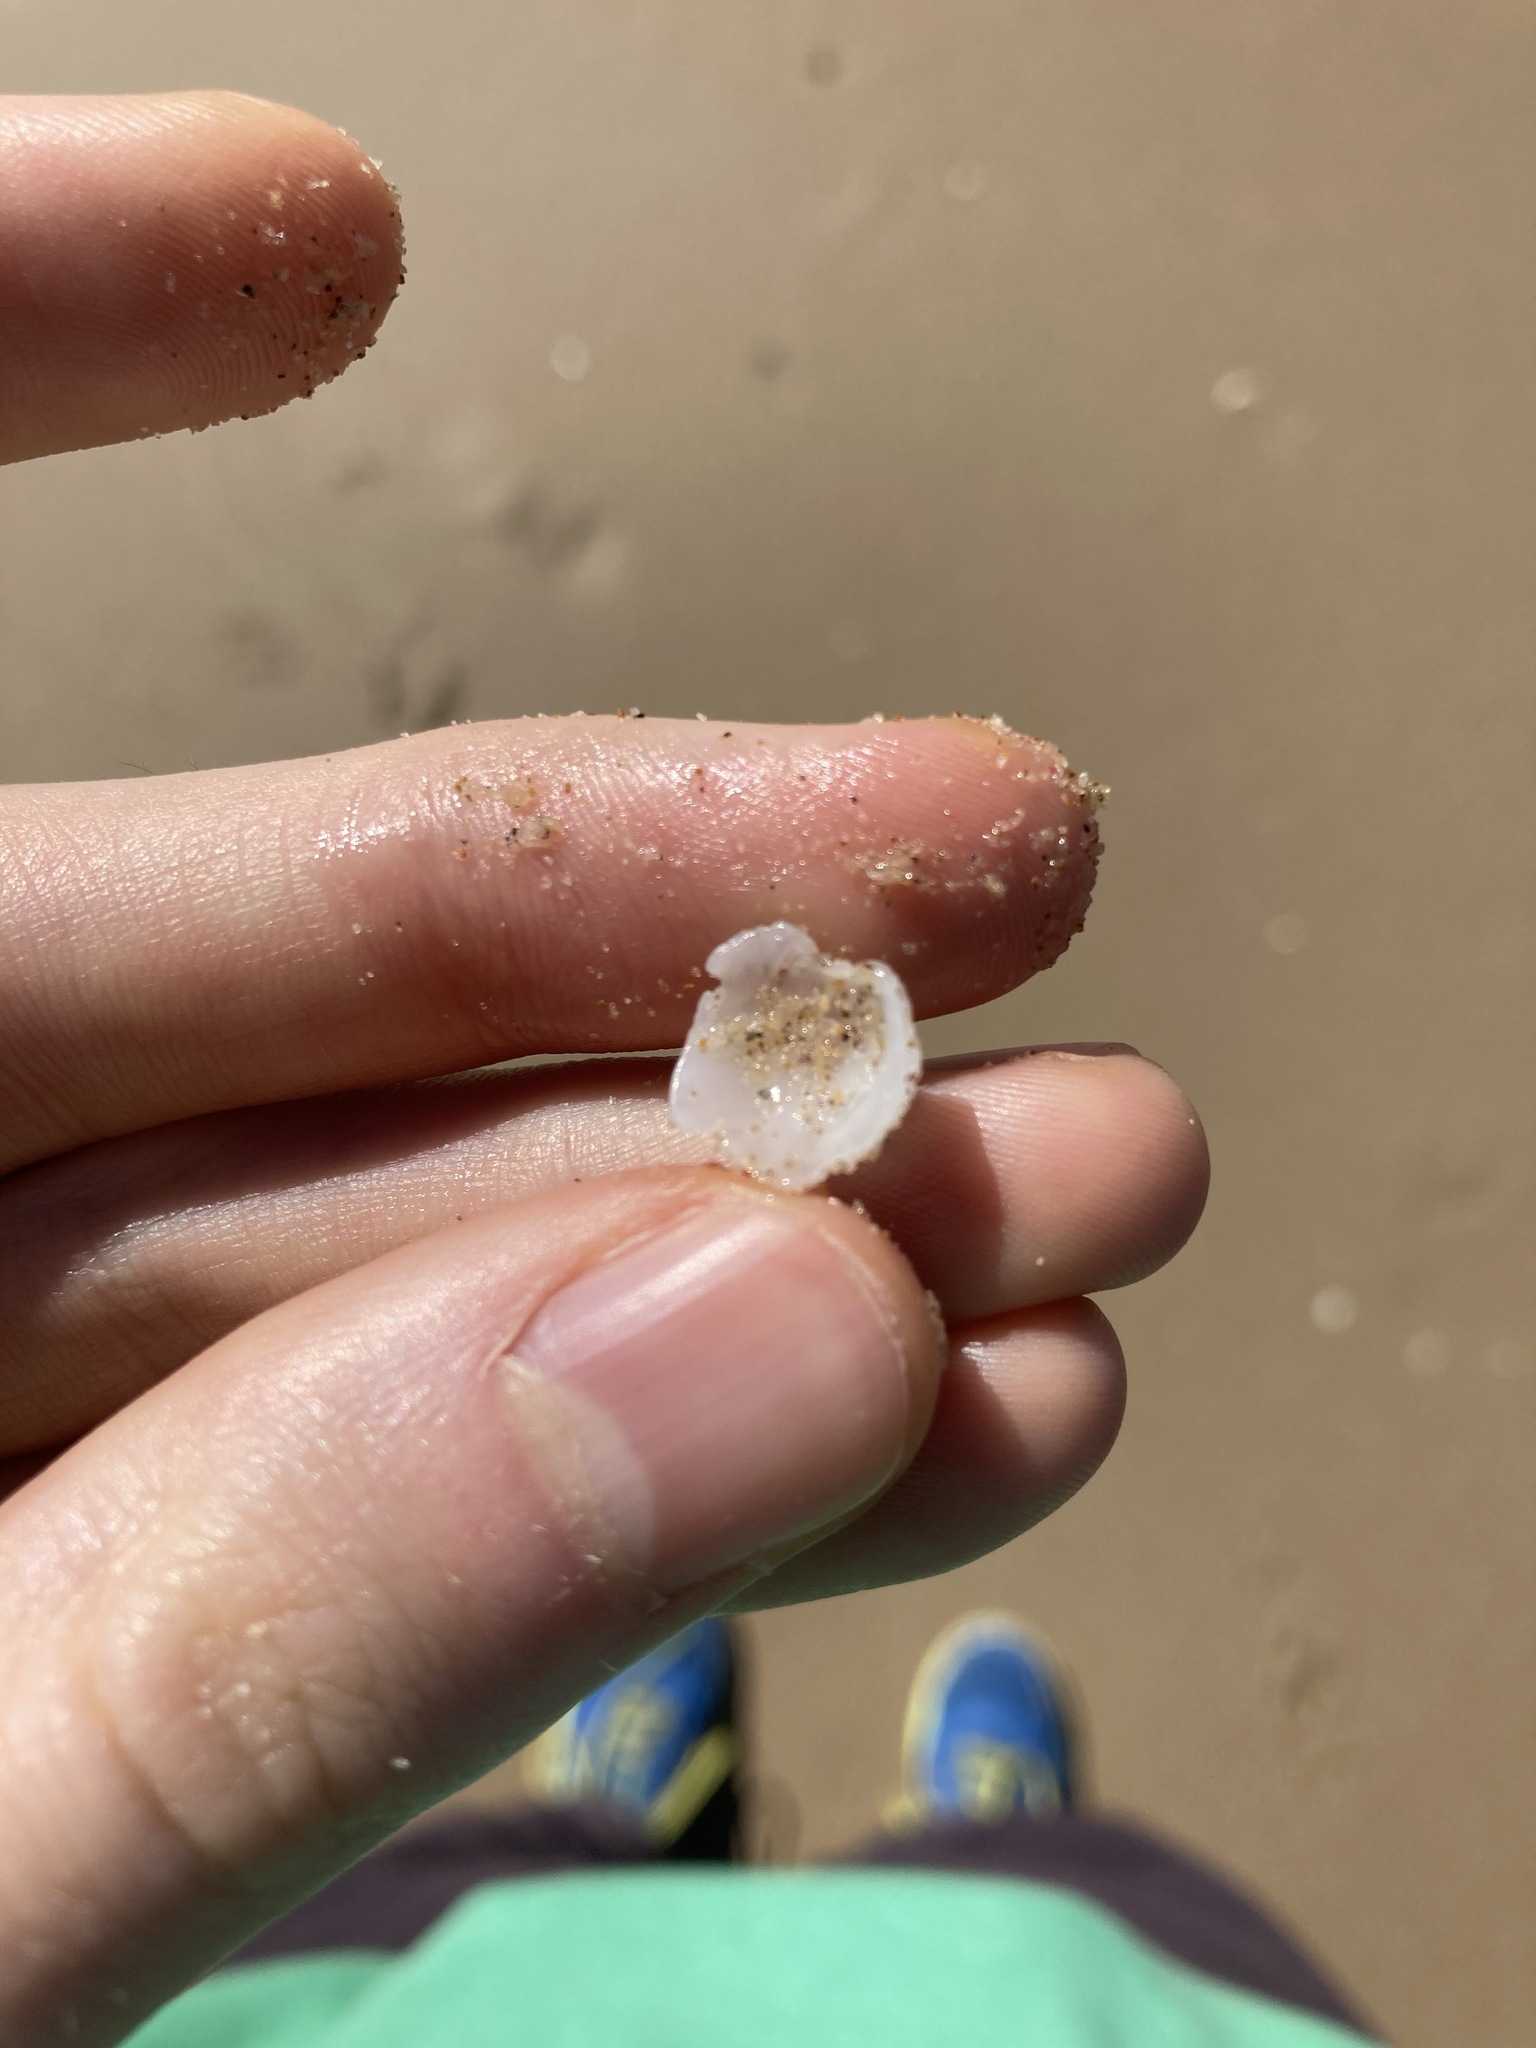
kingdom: Animalia
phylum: Mollusca
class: Gastropoda
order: Ellobiida
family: Trimusculidae
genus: Trimusculus
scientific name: Trimusculus conicus
